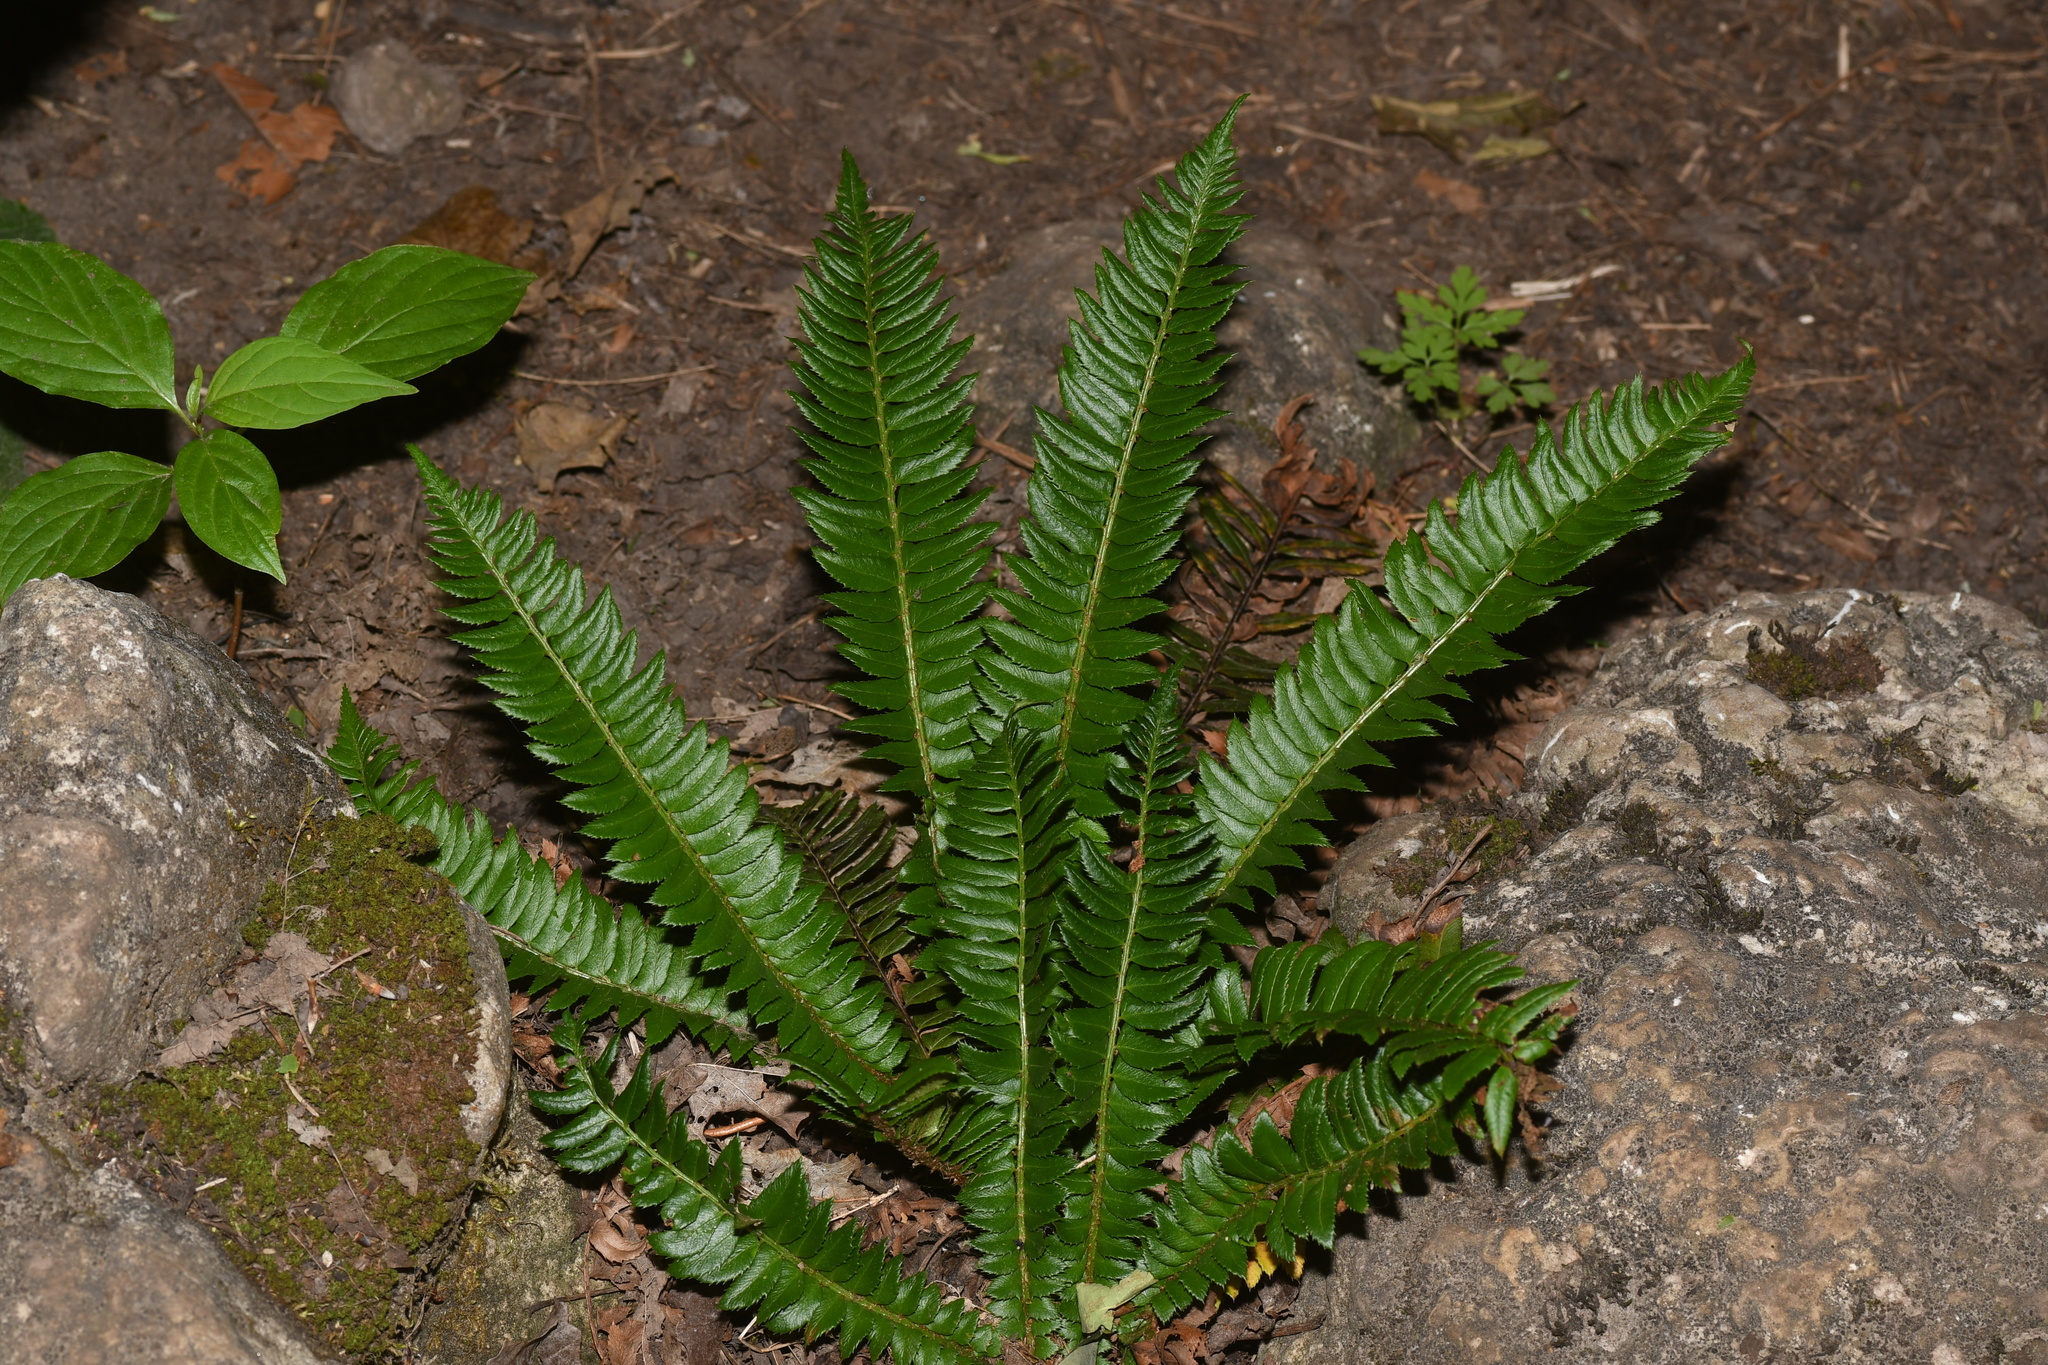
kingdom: Plantae
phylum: Tracheophyta
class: Polypodiopsida
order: Polypodiales
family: Dryopteridaceae
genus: Polystichum
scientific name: Polystichum lonchitis
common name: Holly fern
